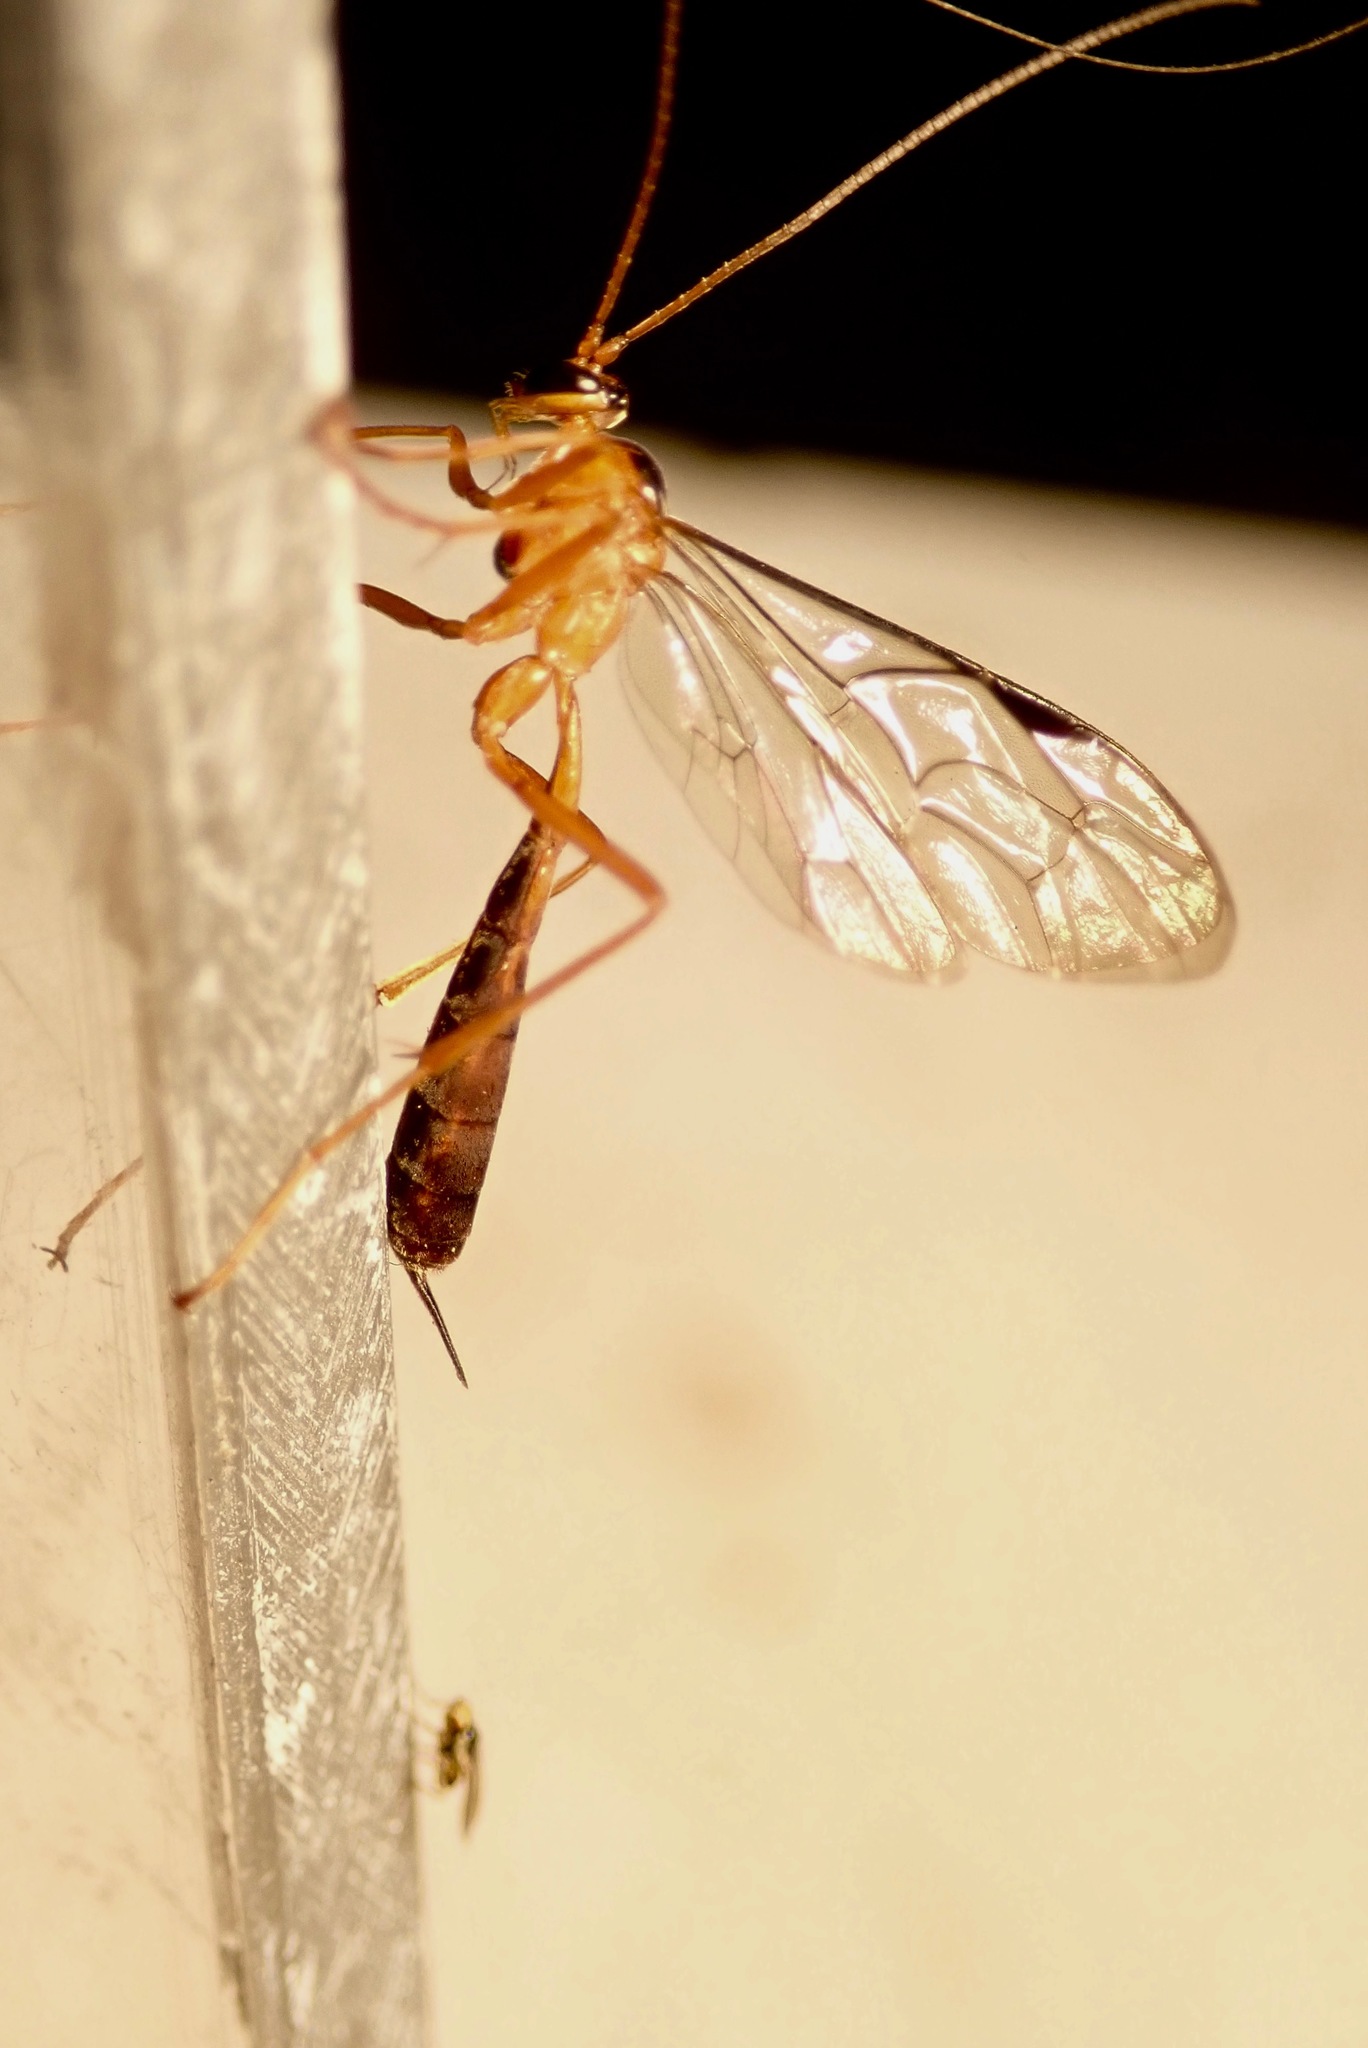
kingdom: Animalia
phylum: Arthropoda
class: Insecta
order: Hymenoptera
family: Ichneumonidae
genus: Netelia
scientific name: Netelia ephippiata
